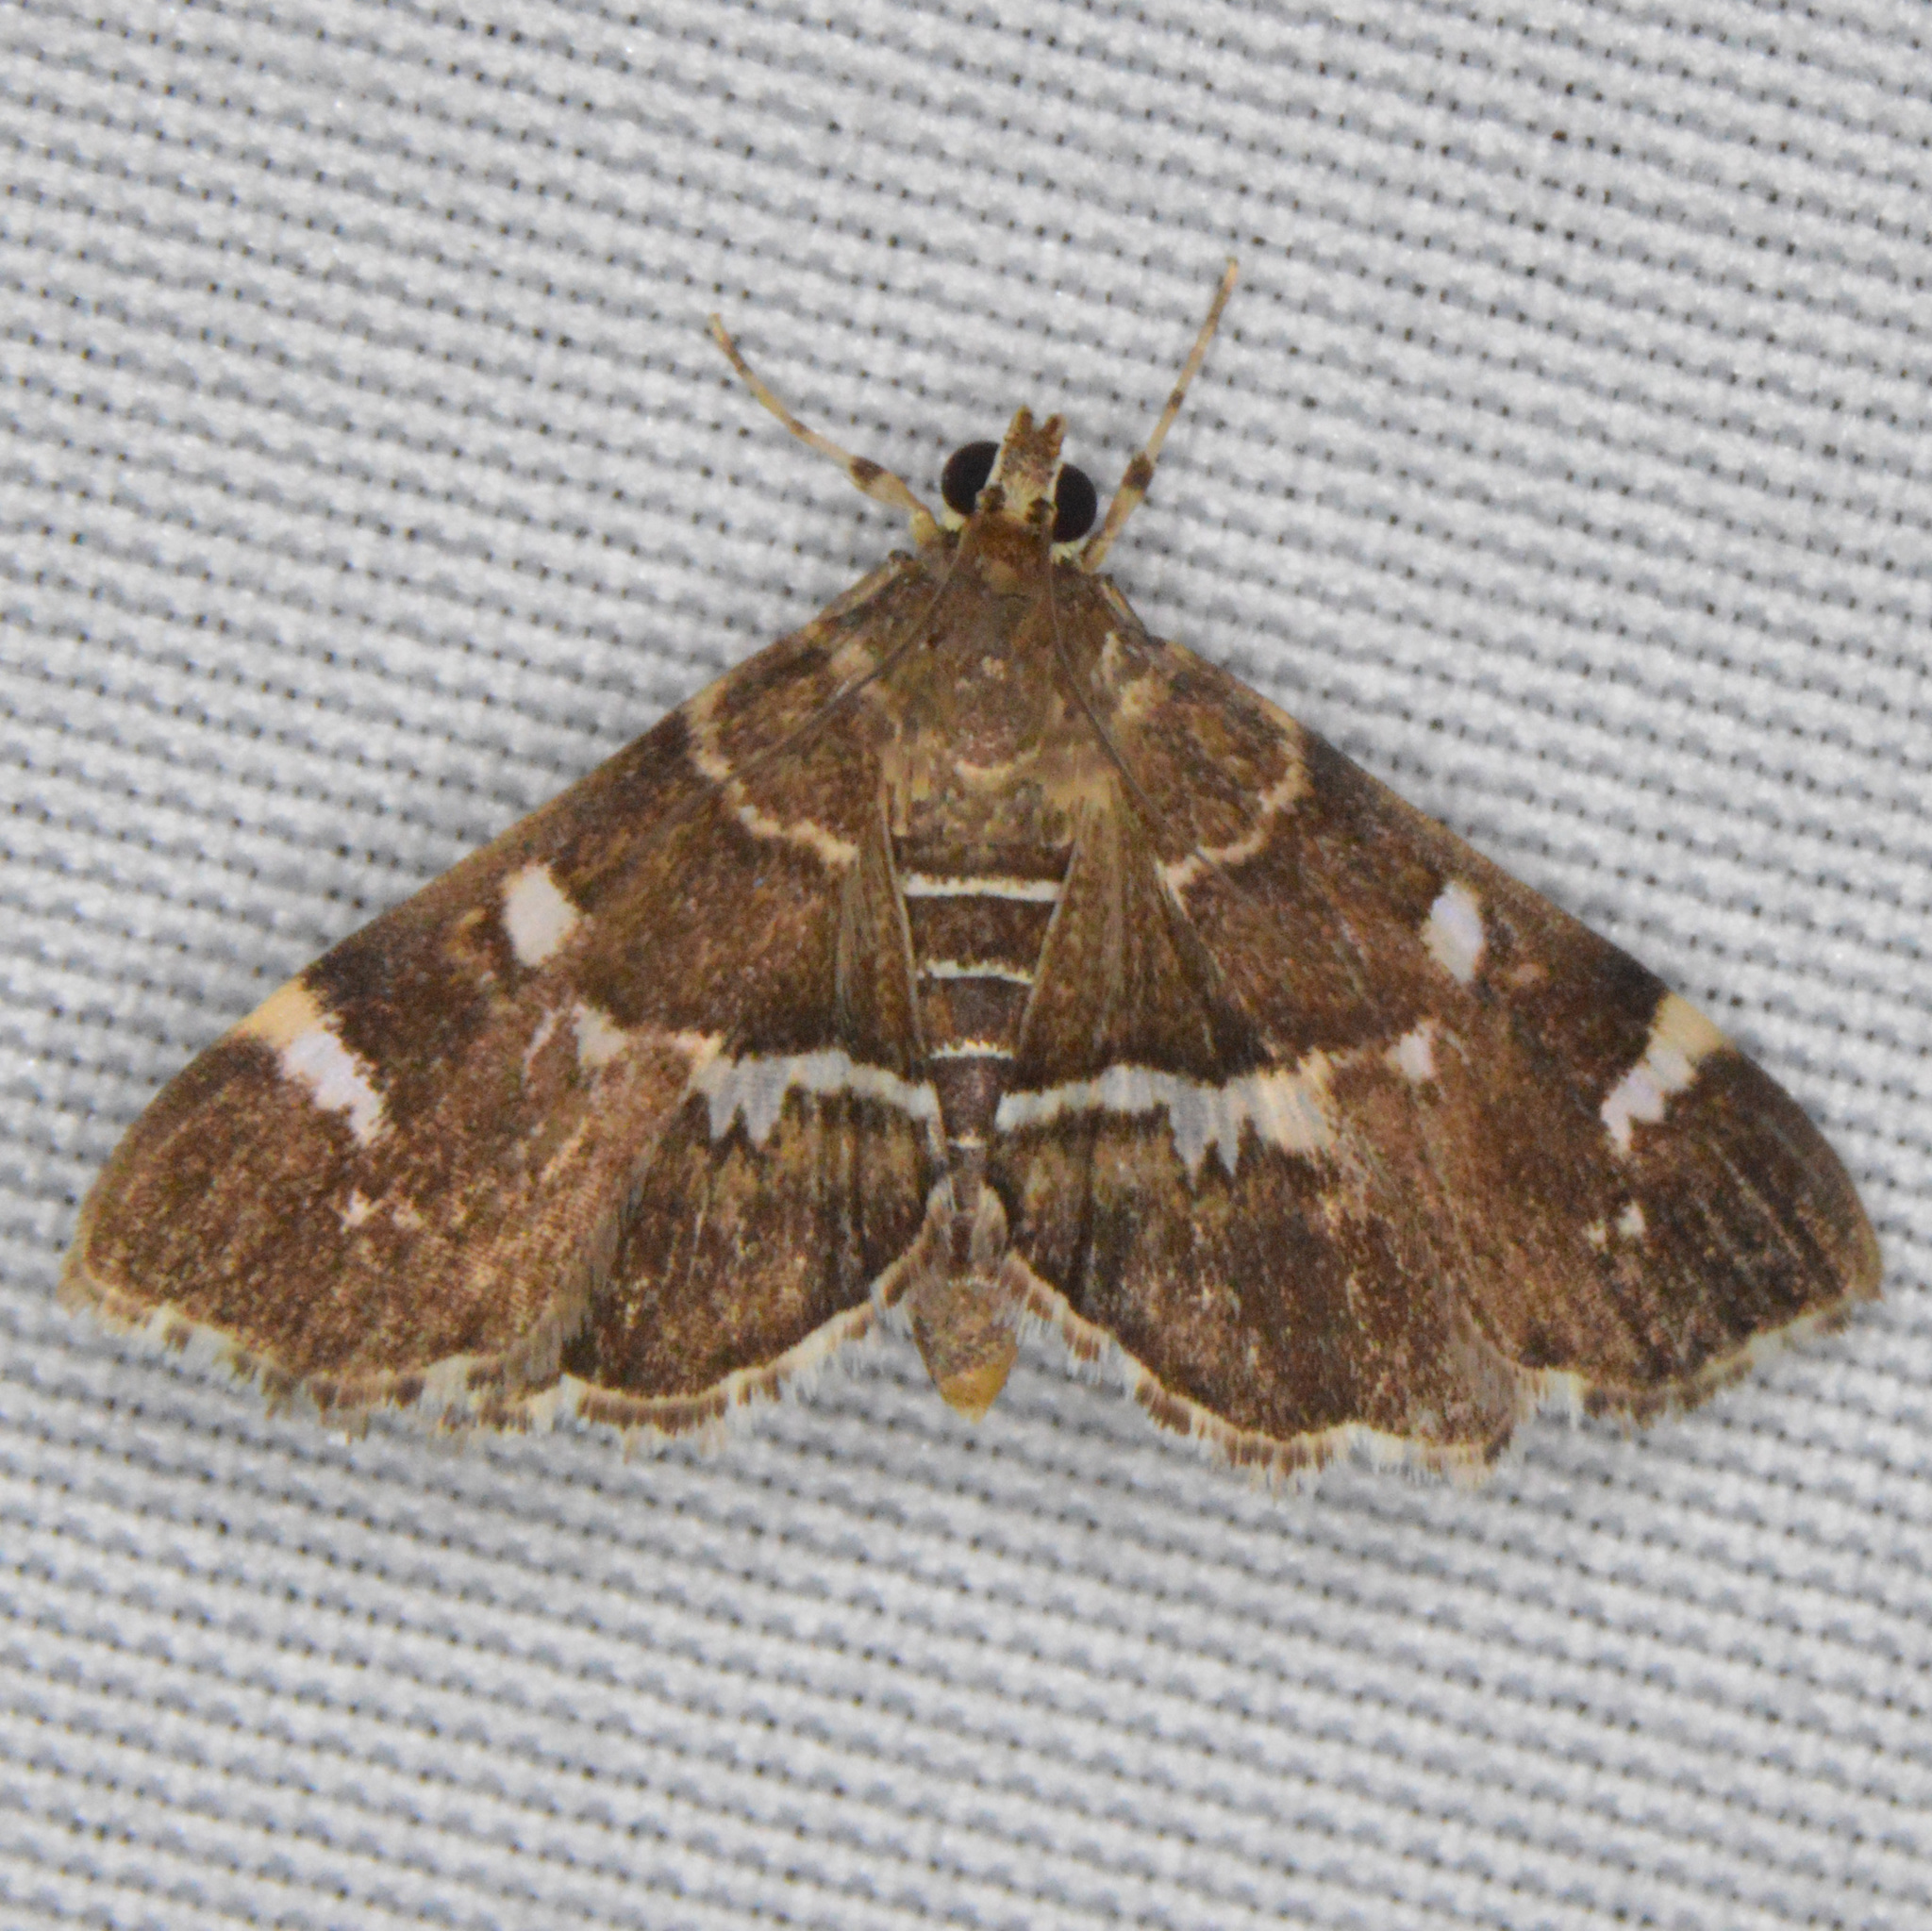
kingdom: Animalia
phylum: Arthropoda
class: Insecta
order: Lepidoptera
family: Crambidae
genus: Hymenia
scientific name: Hymenia perspectalis
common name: Spotted beet webworm
